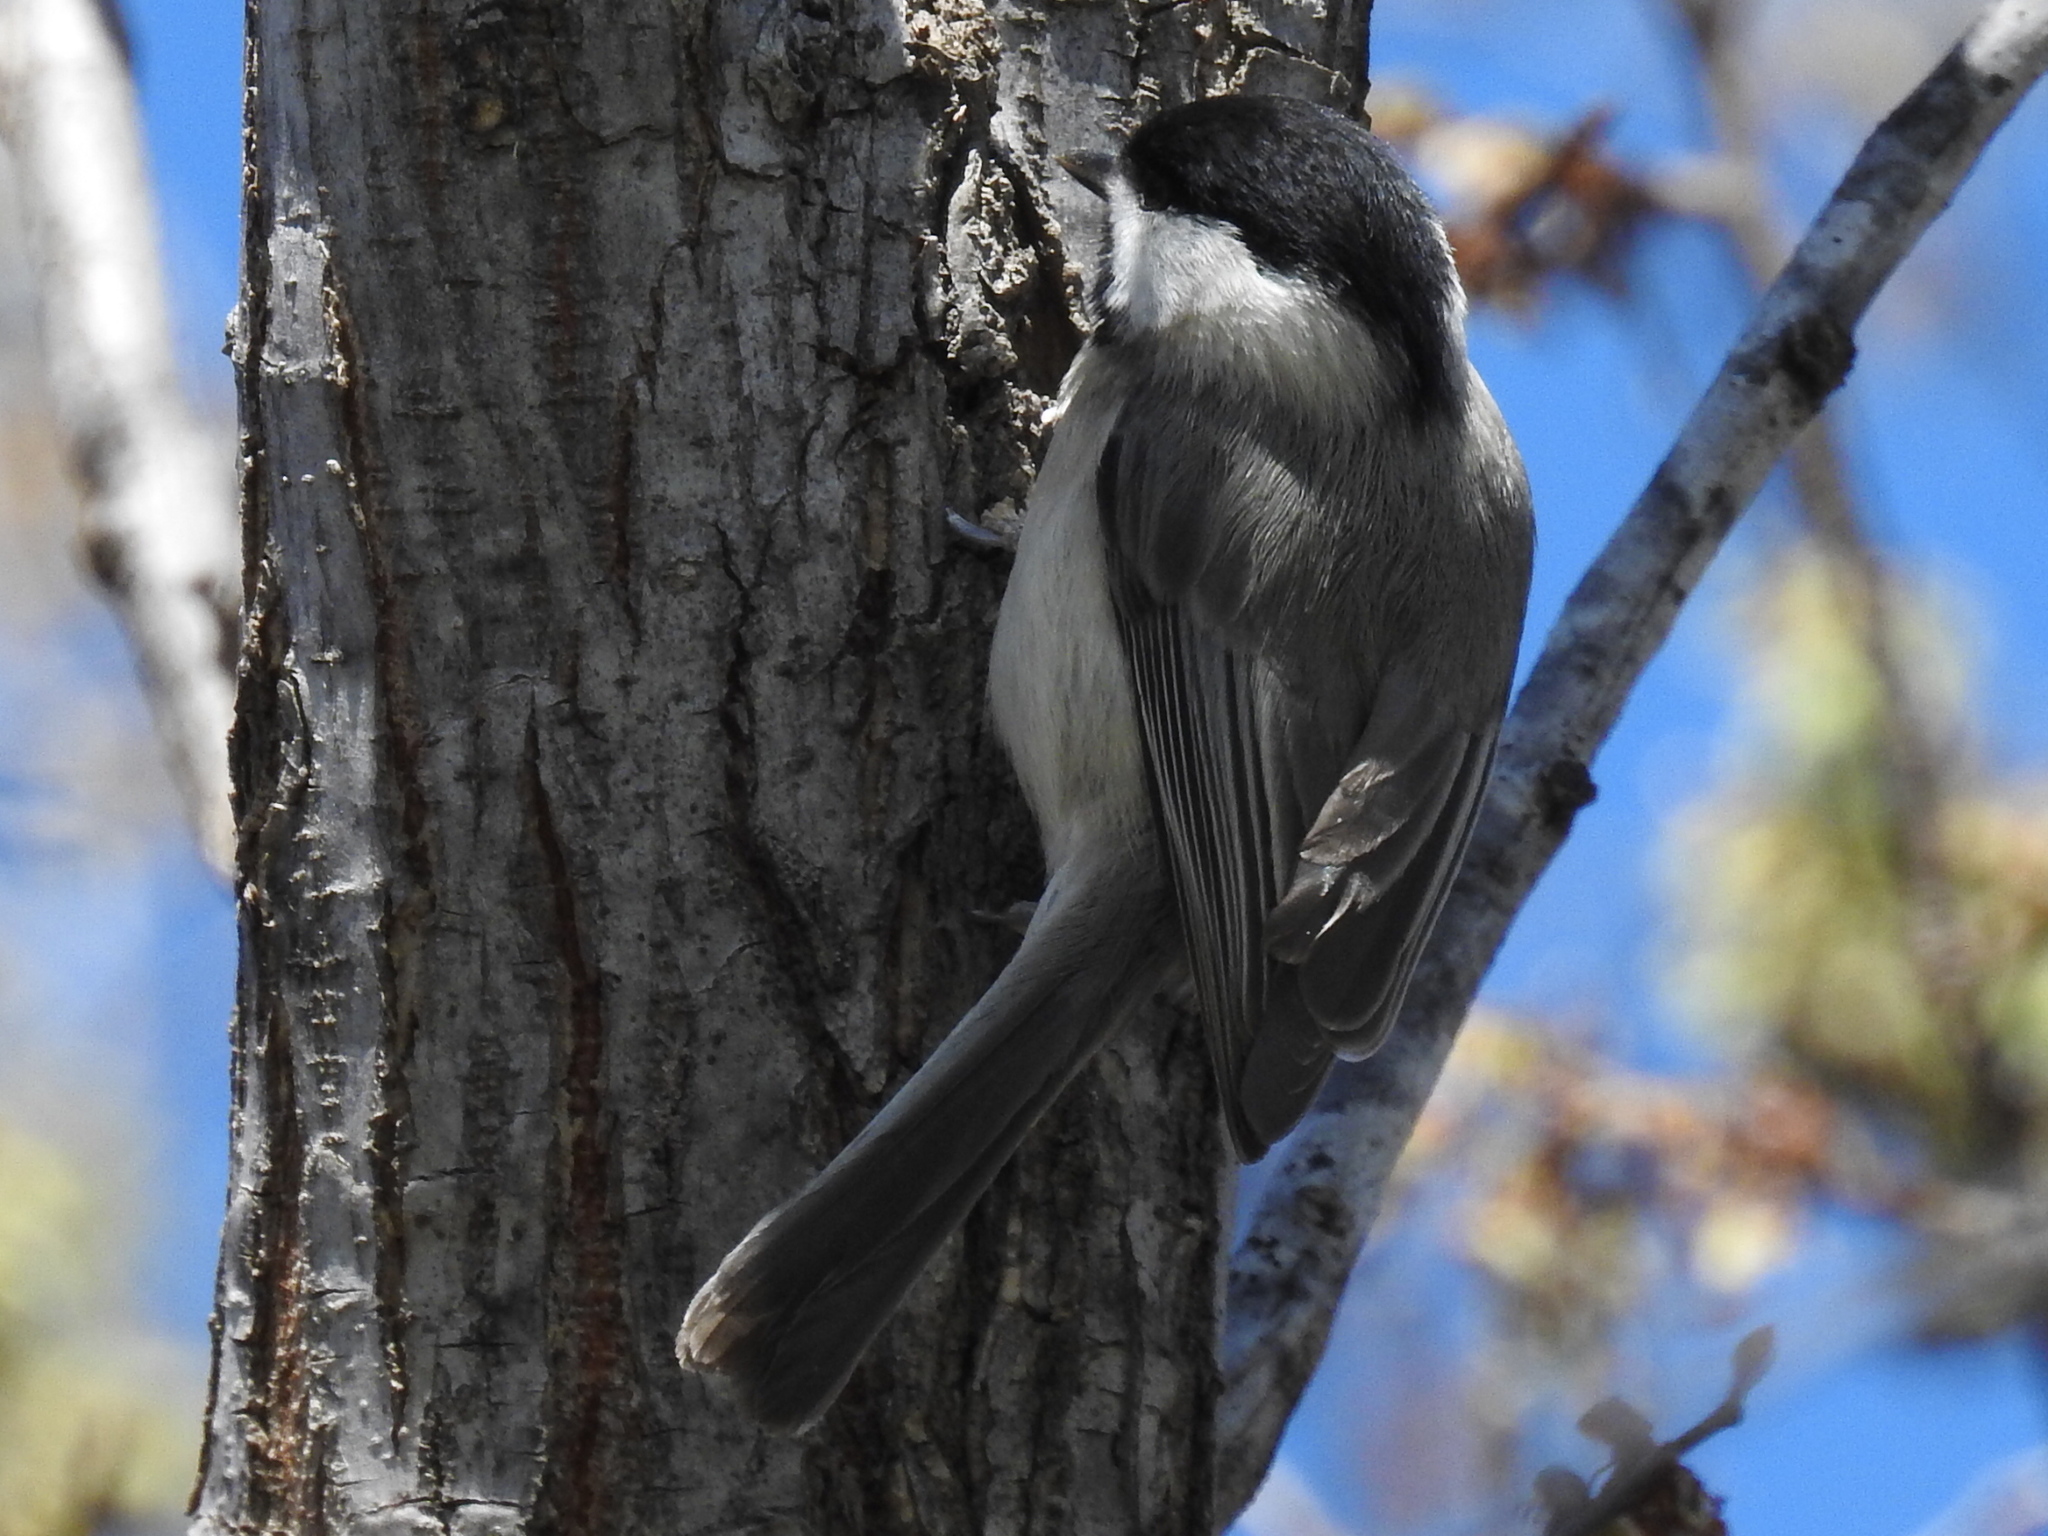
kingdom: Animalia
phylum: Chordata
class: Aves
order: Passeriformes
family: Paridae
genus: Poecile
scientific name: Poecile carolinensis
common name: Carolina chickadee
